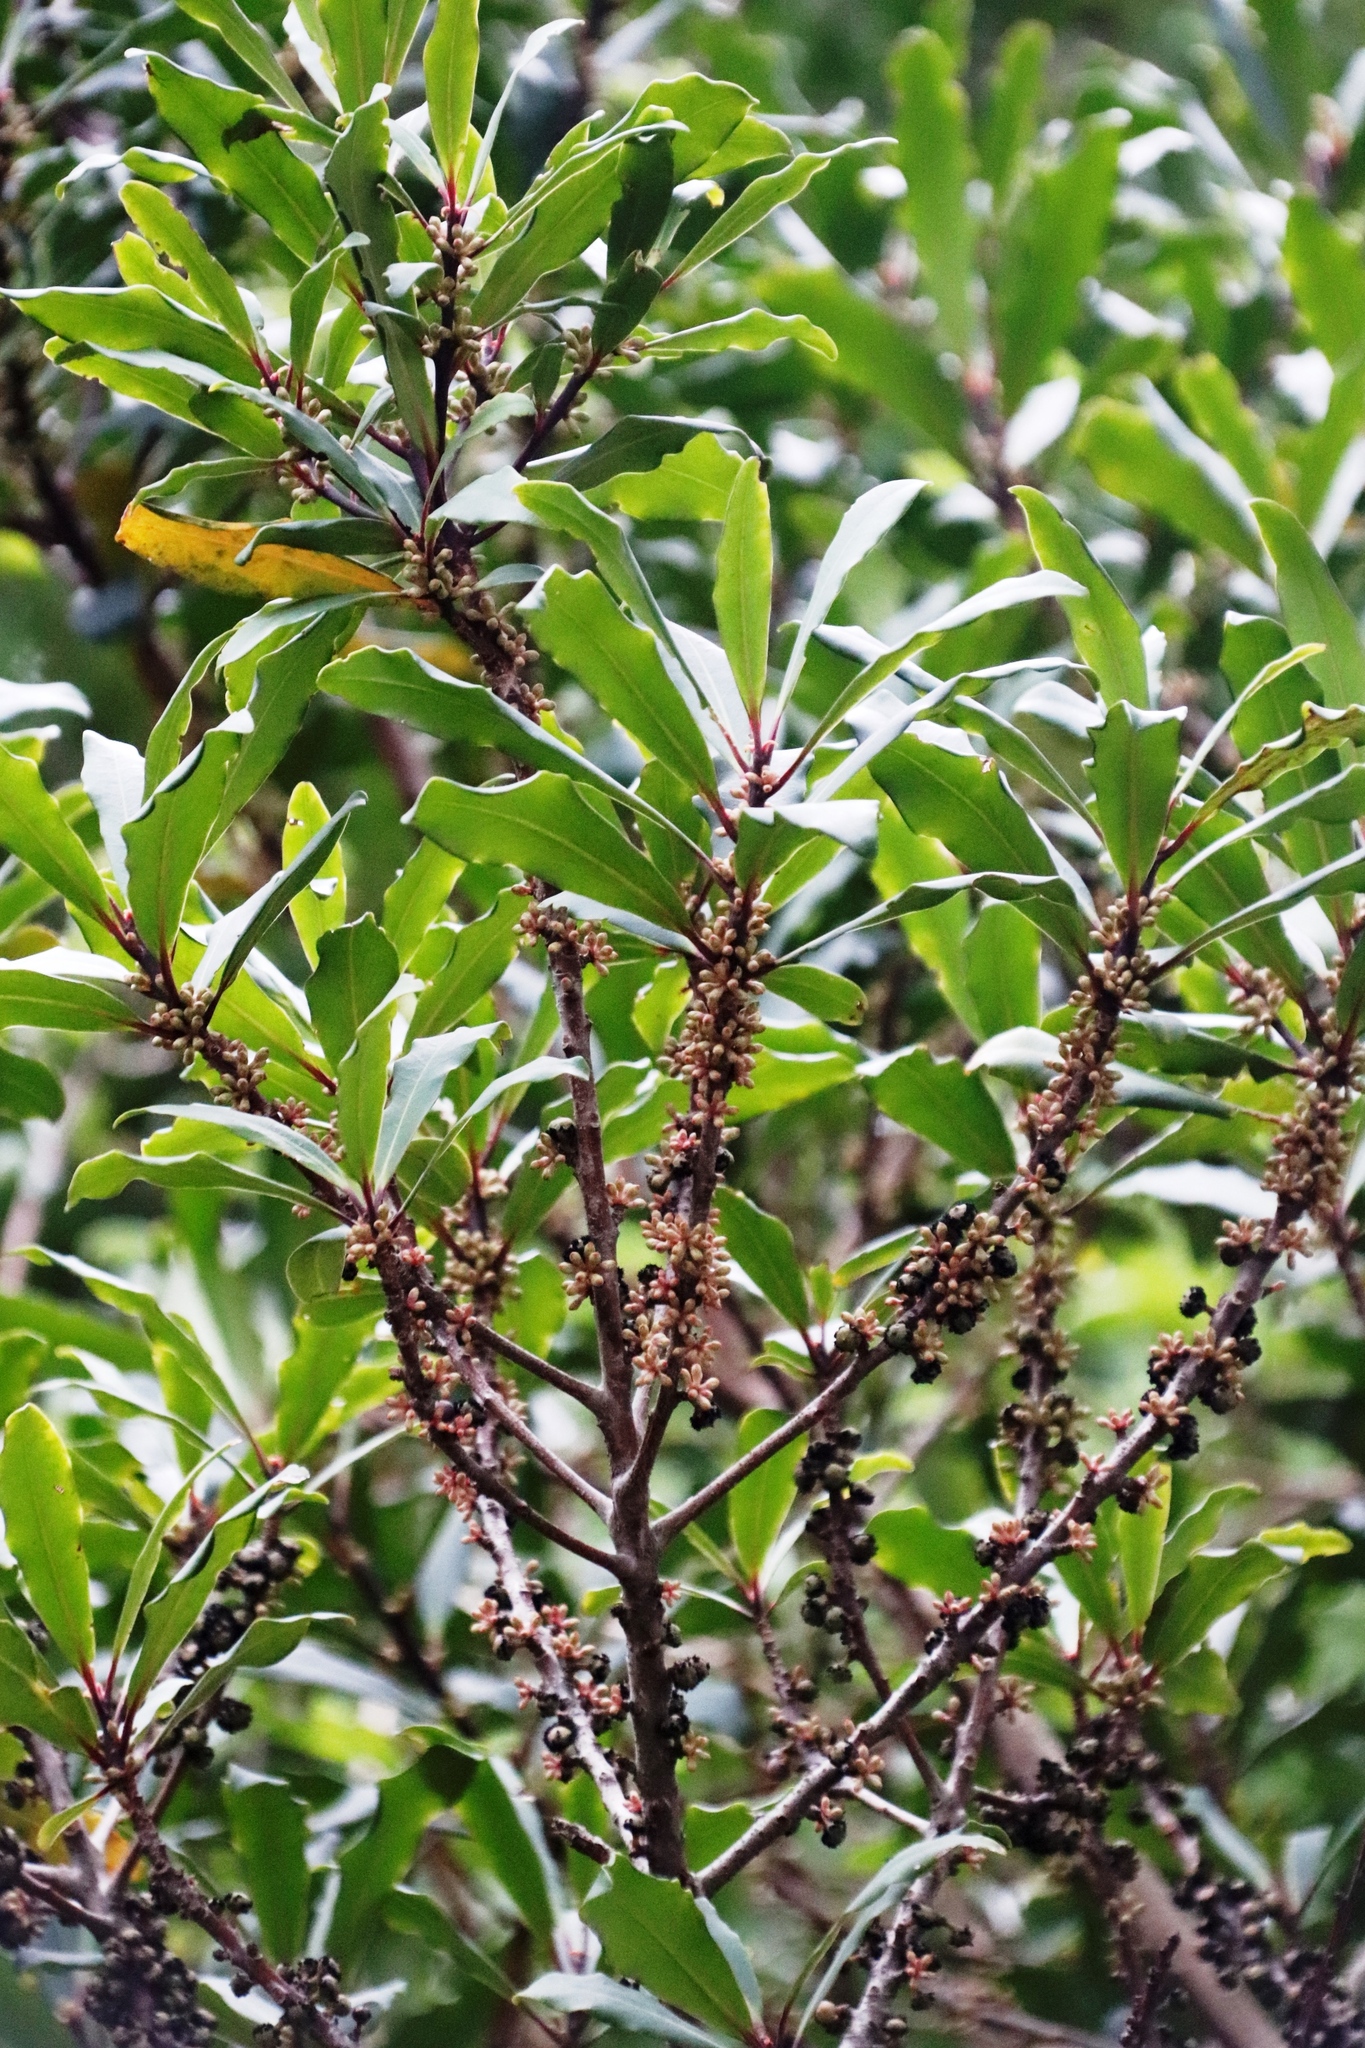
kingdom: Plantae
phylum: Tracheophyta
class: Magnoliopsida
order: Ericales
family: Primulaceae
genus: Myrsine
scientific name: Myrsine melanophloeos
